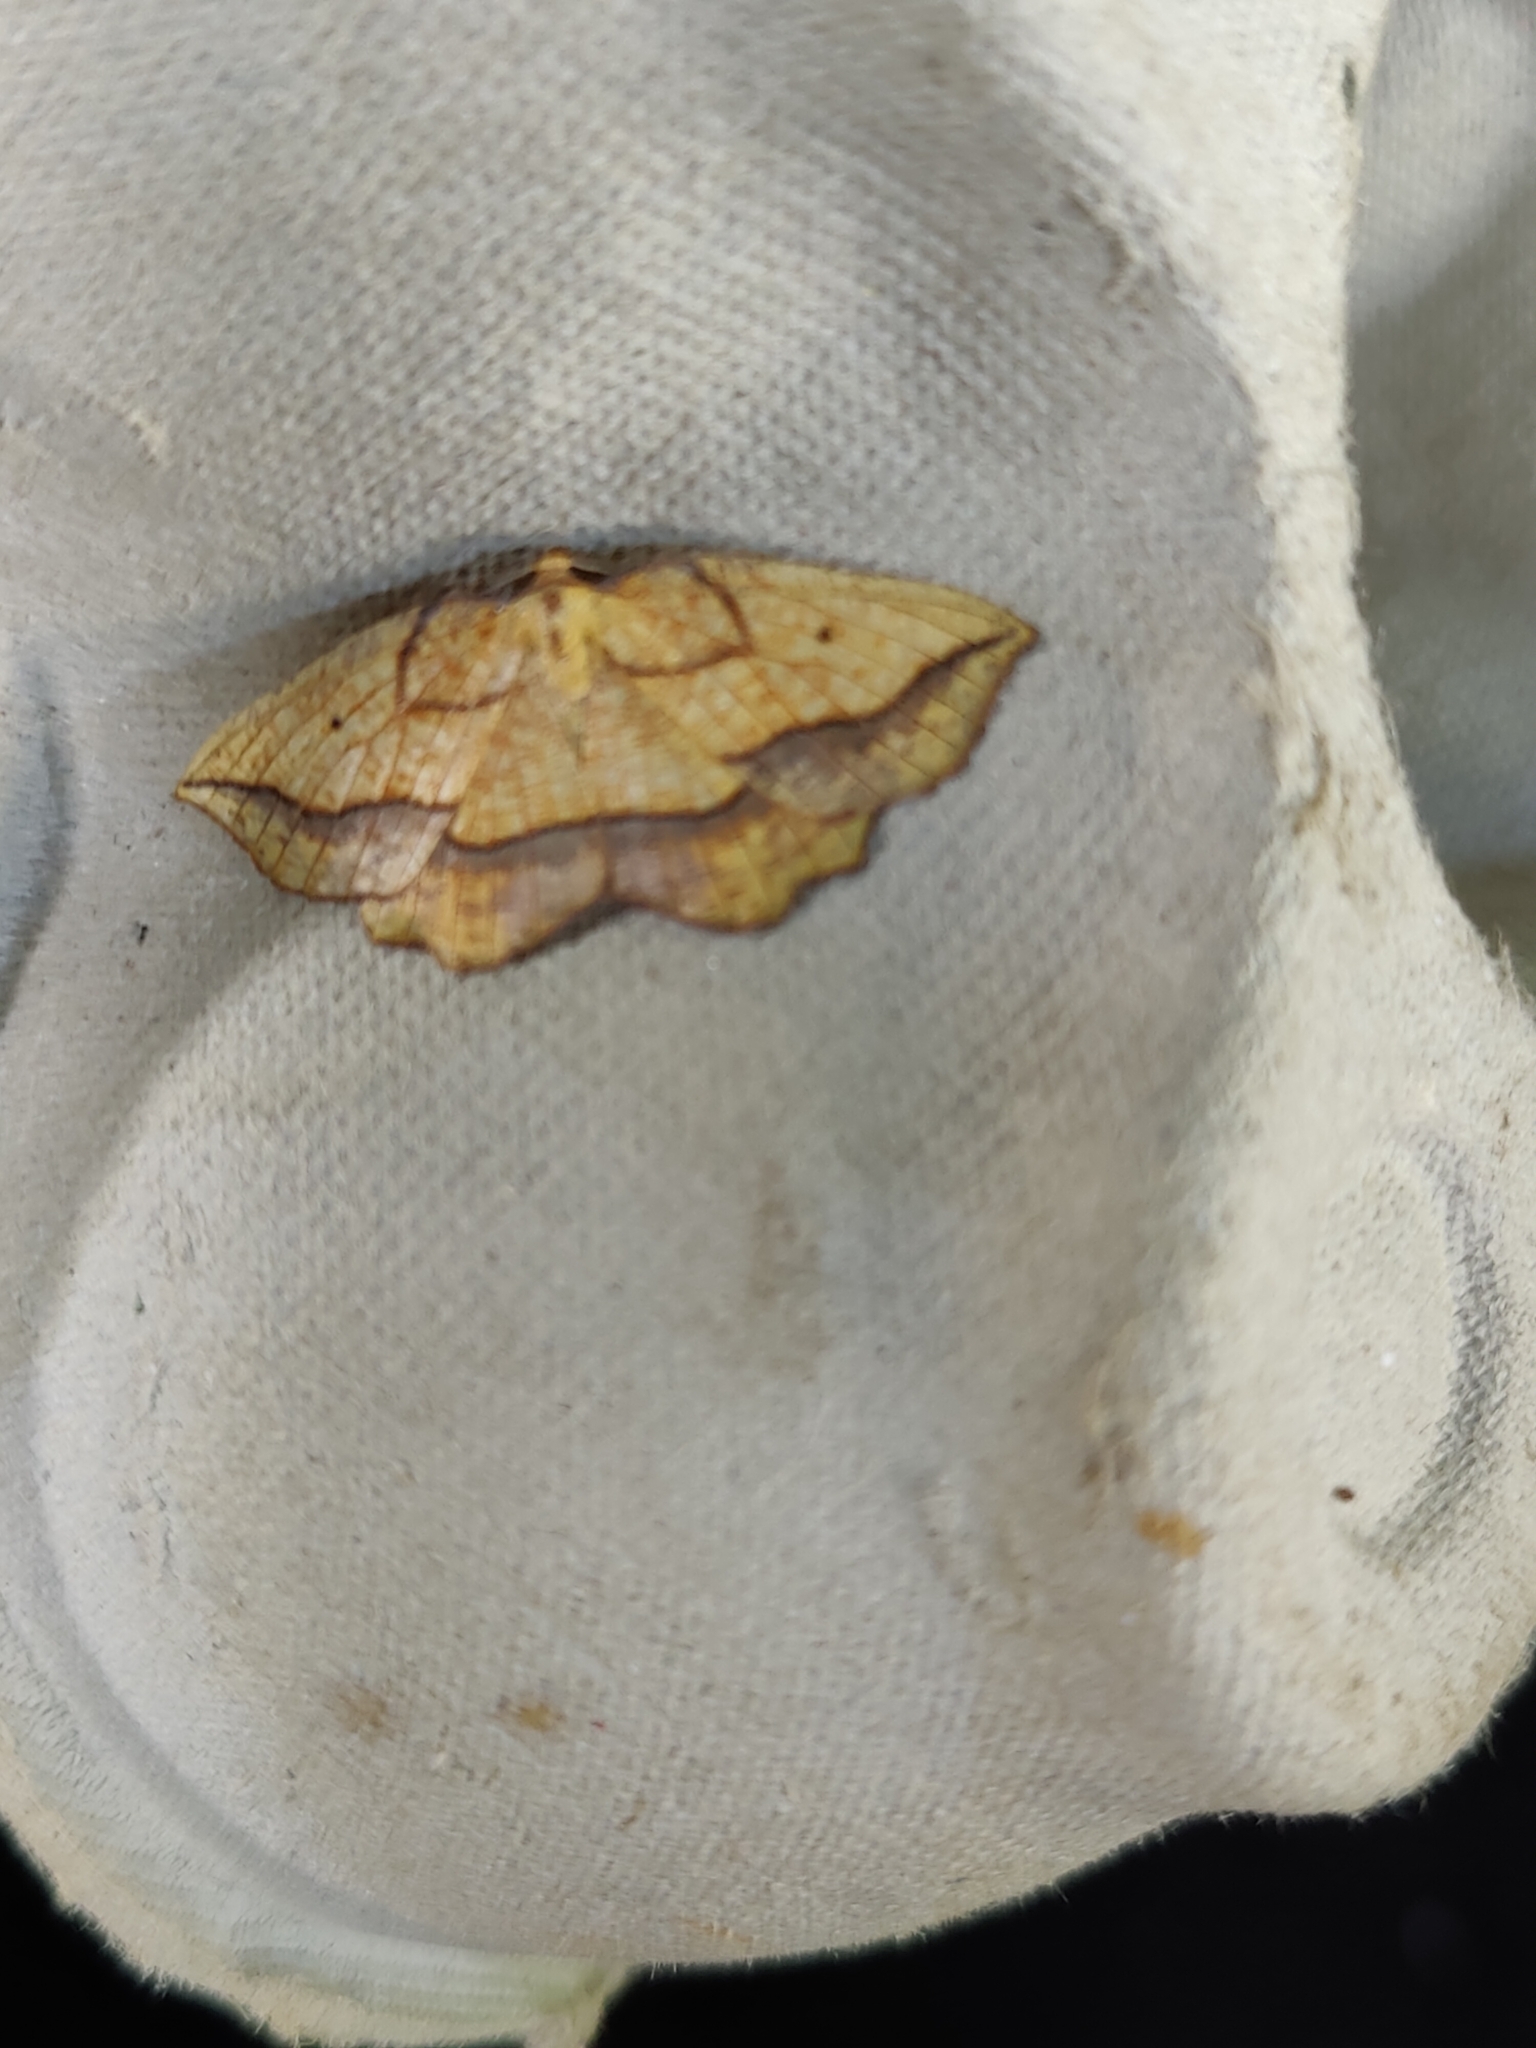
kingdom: Animalia
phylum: Arthropoda
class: Insecta
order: Lepidoptera
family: Geometridae
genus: Epione
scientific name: Epione repandaria
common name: Bordered beauty
